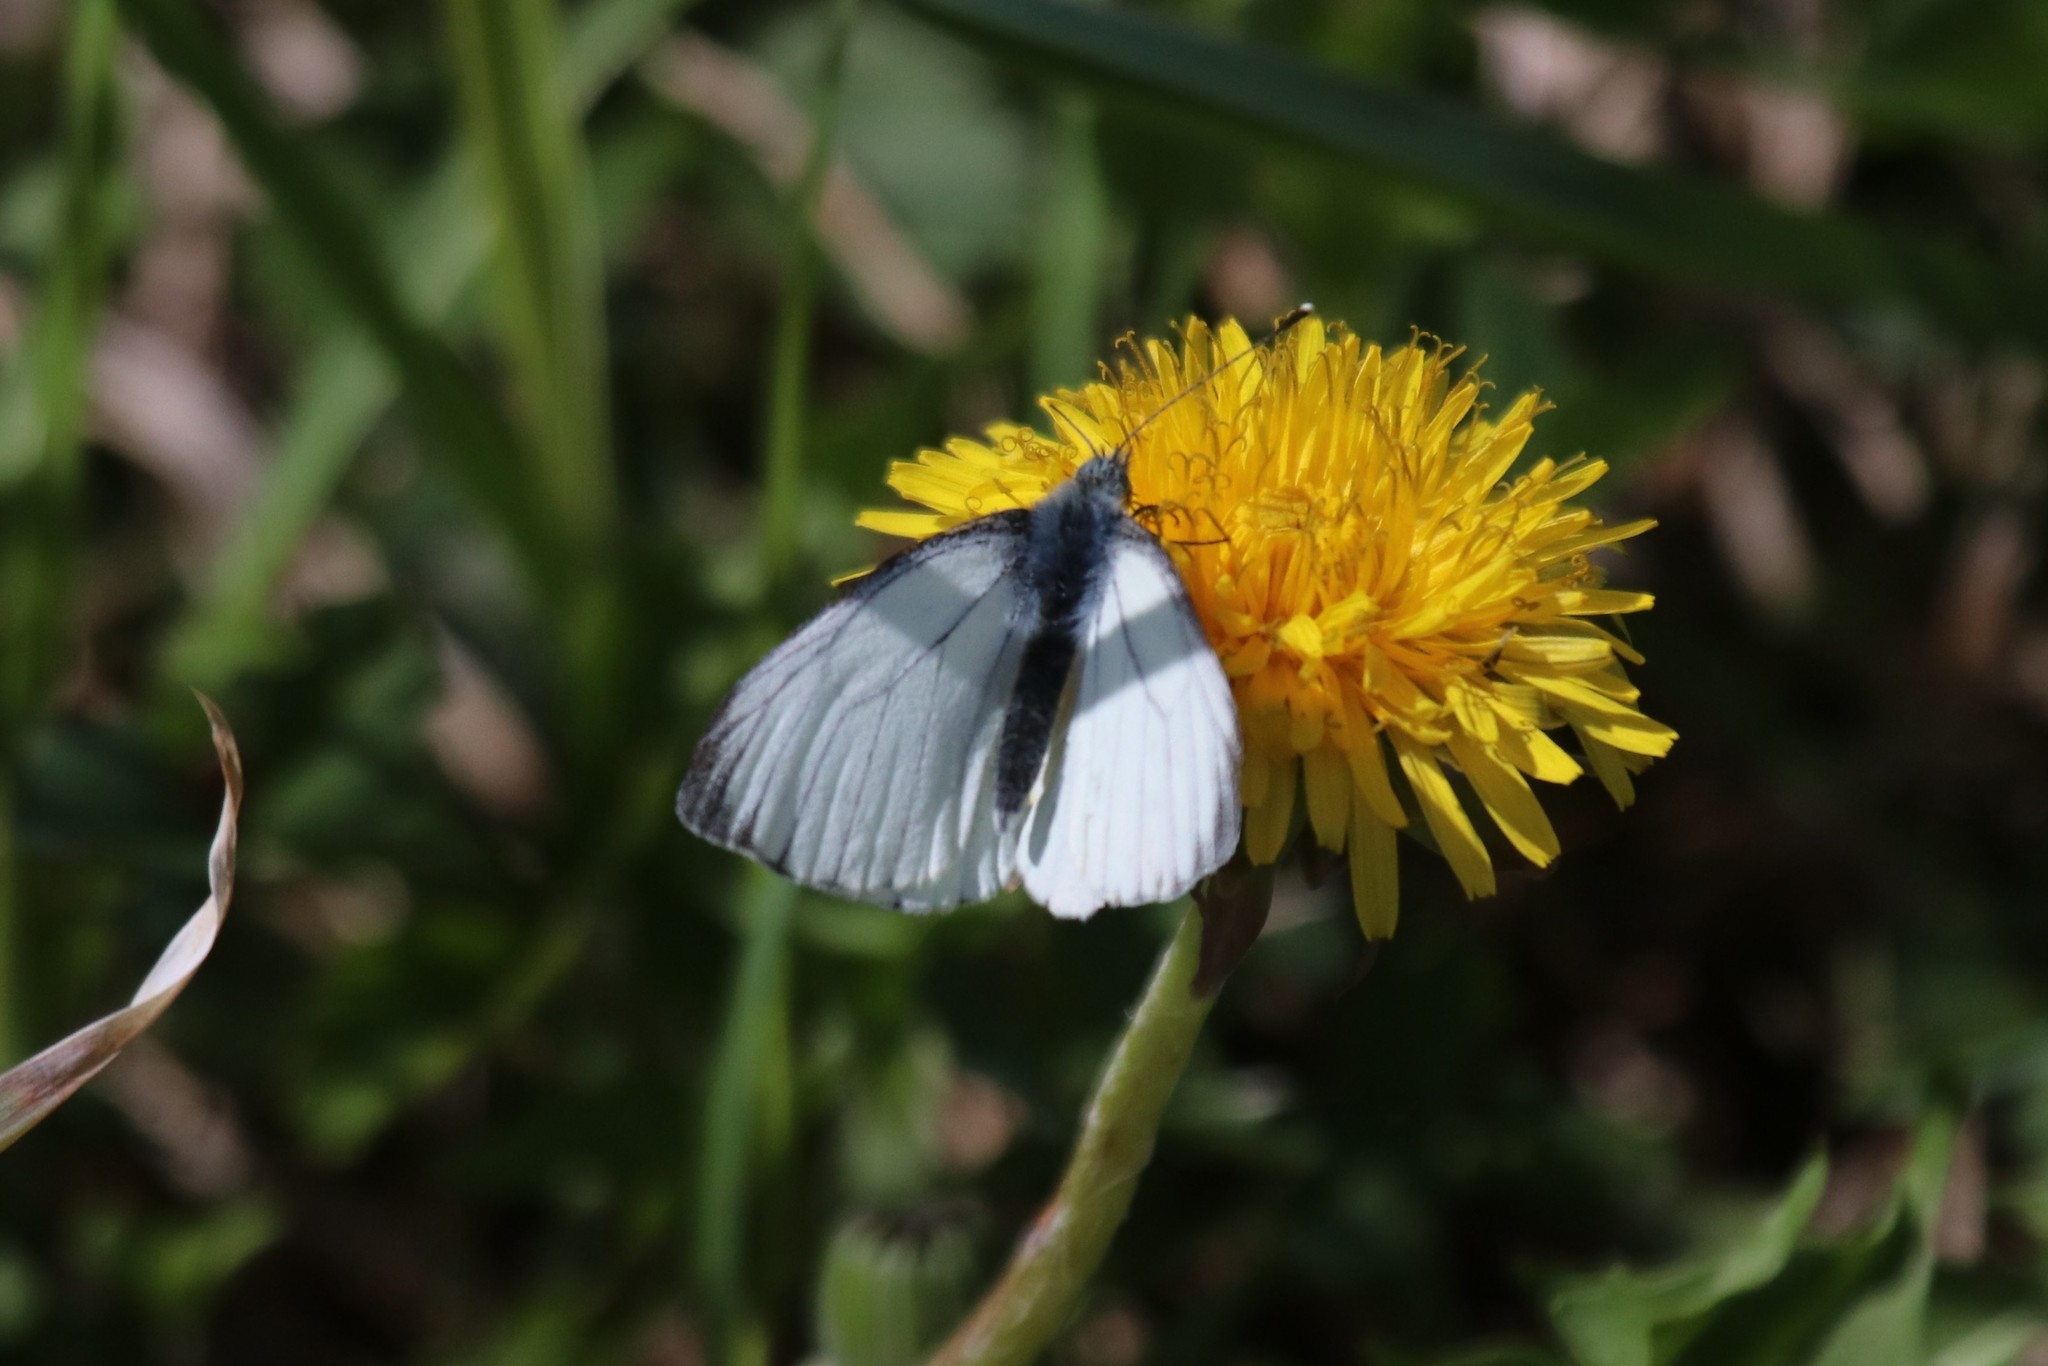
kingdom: Animalia
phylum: Arthropoda
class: Insecta
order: Lepidoptera
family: Pieridae
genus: Pieris
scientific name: Pieris napi
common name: Green-veined white
